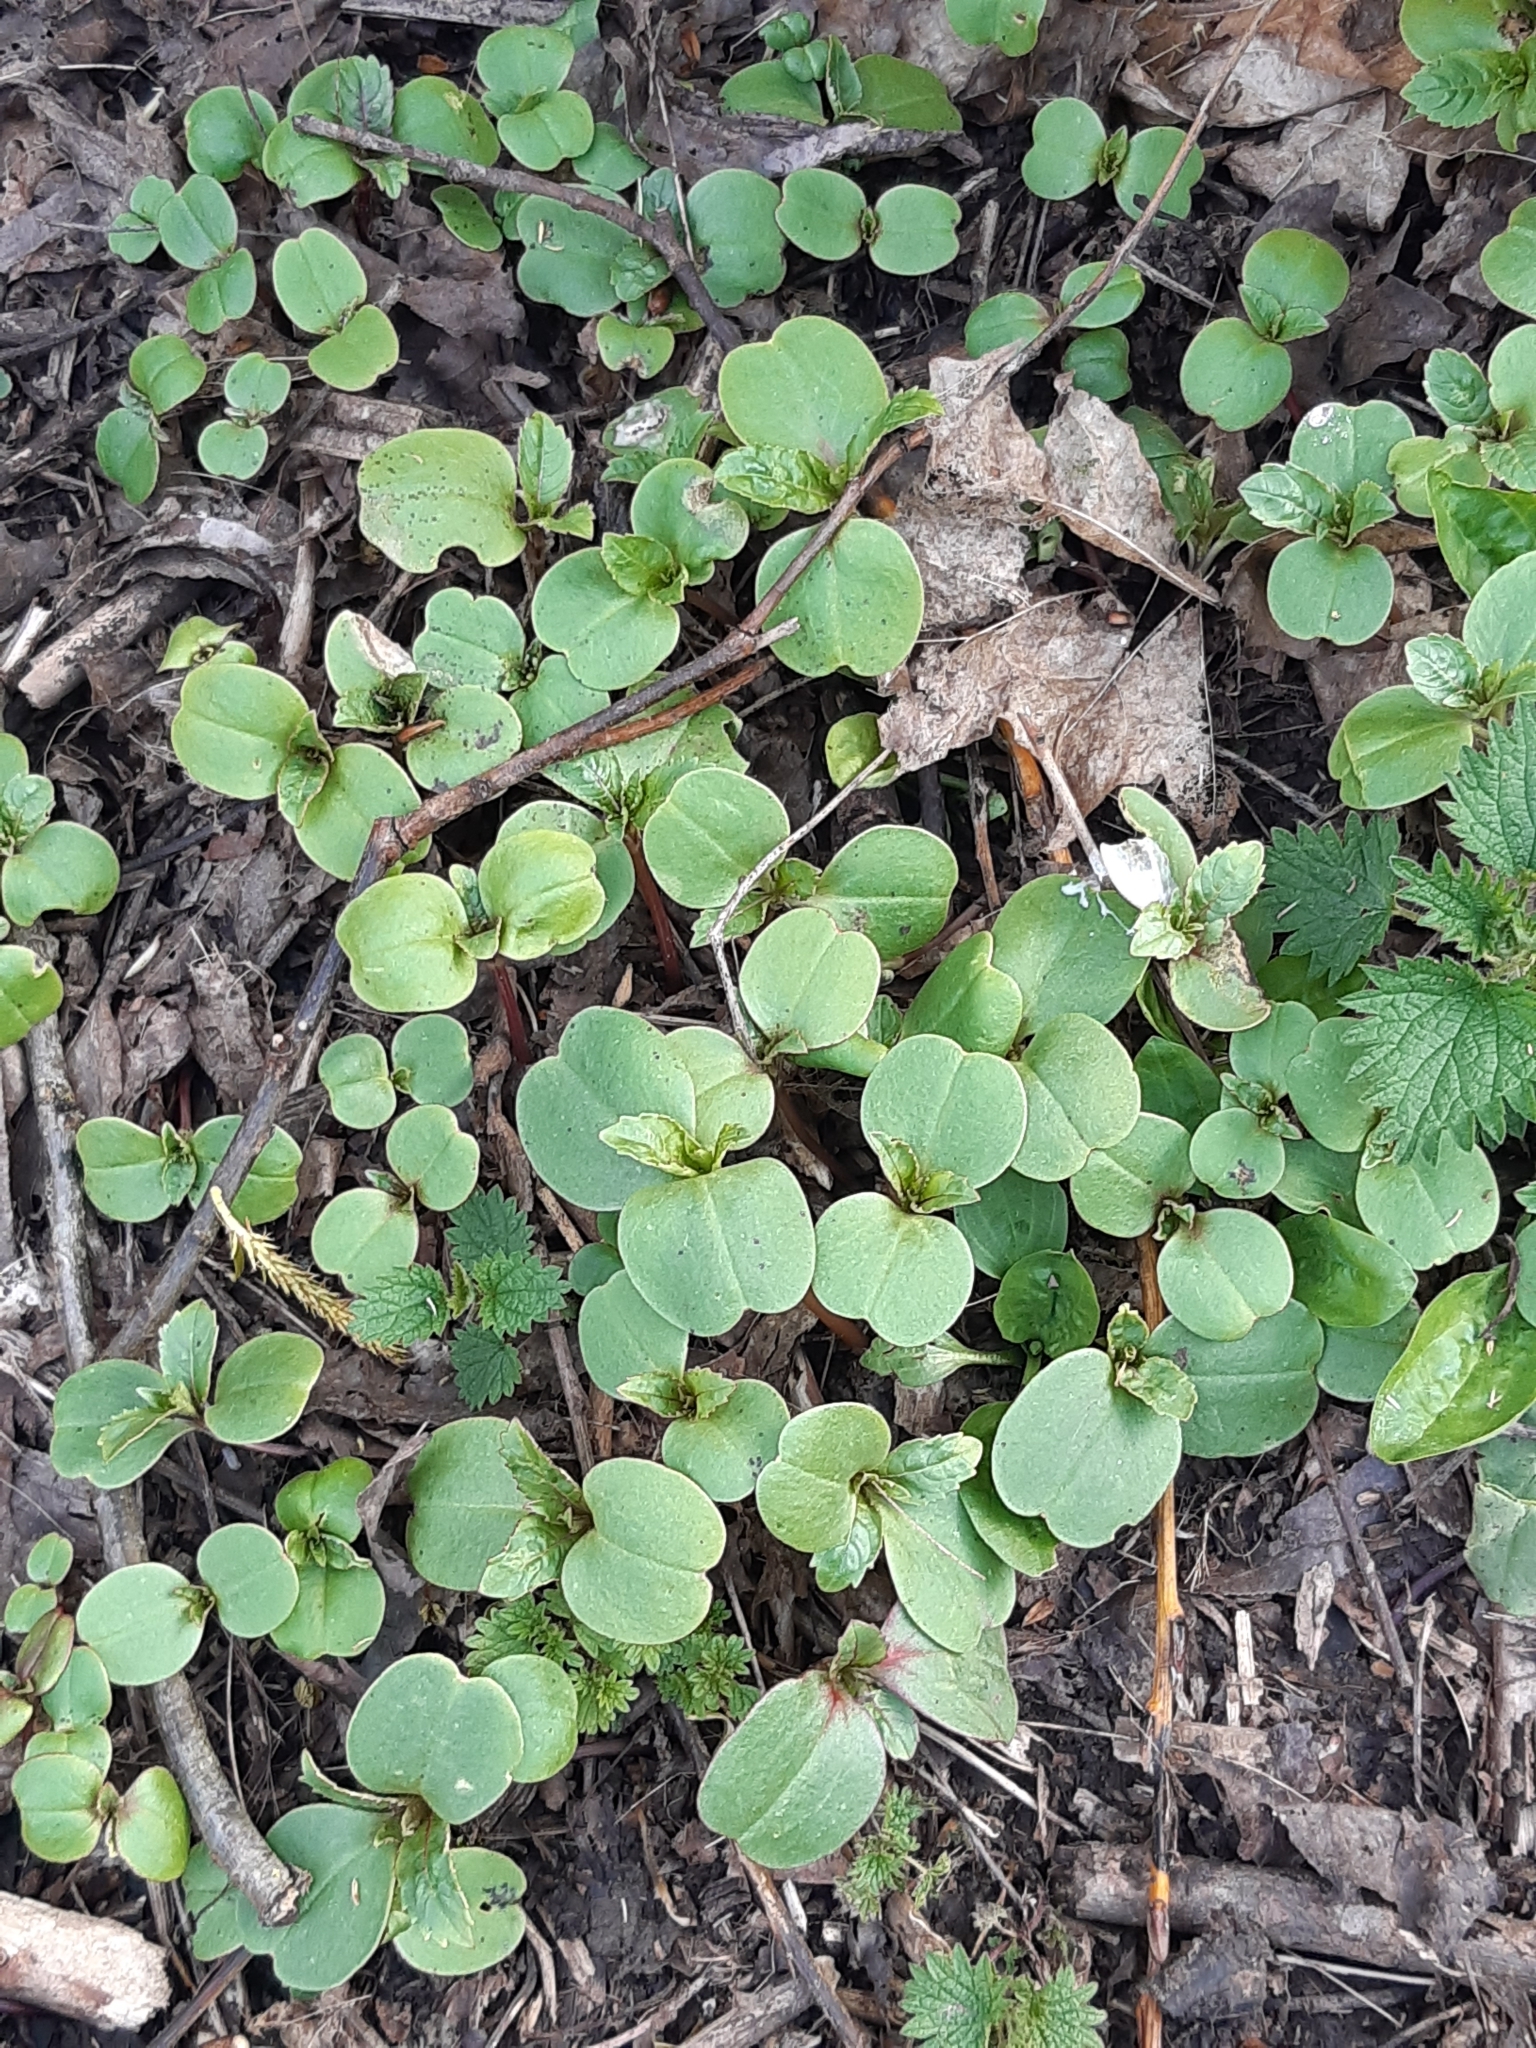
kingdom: Plantae
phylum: Tracheophyta
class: Magnoliopsida
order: Ericales
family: Balsaminaceae
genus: Impatiens
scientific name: Impatiens glandulifera
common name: Himalayan balsam
